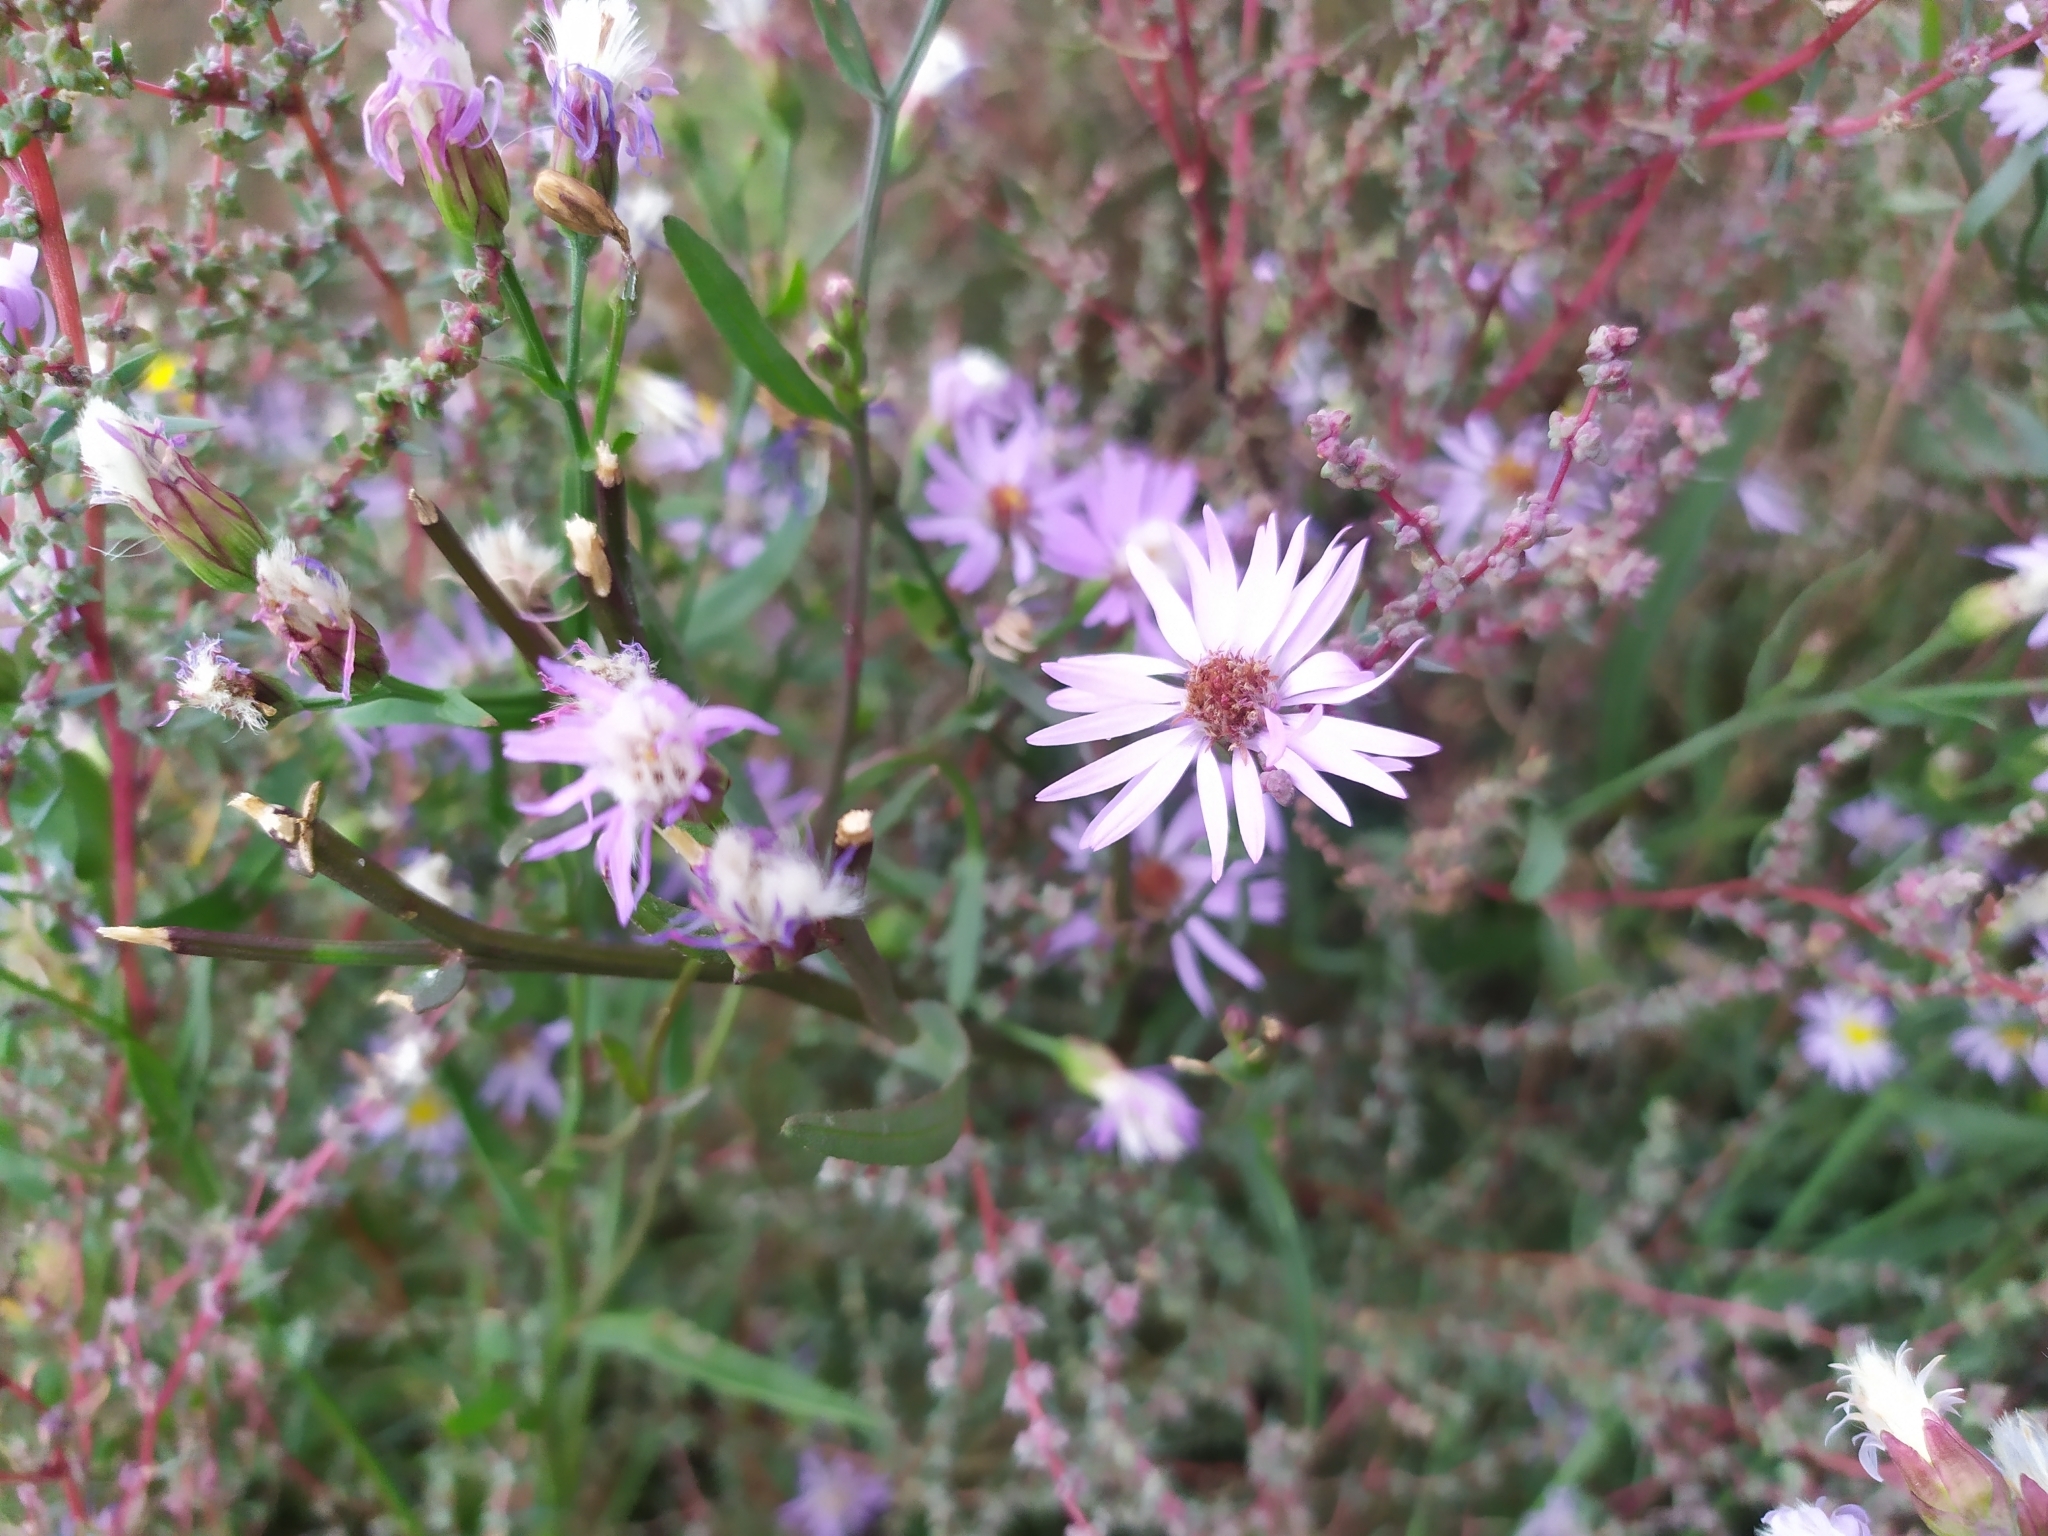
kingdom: Plantae
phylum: Tracheophyta
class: Magnoliopsida
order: Asterales
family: Asteraceae
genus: Tripolium
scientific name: Tripolium pannonicum
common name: Sea aster
